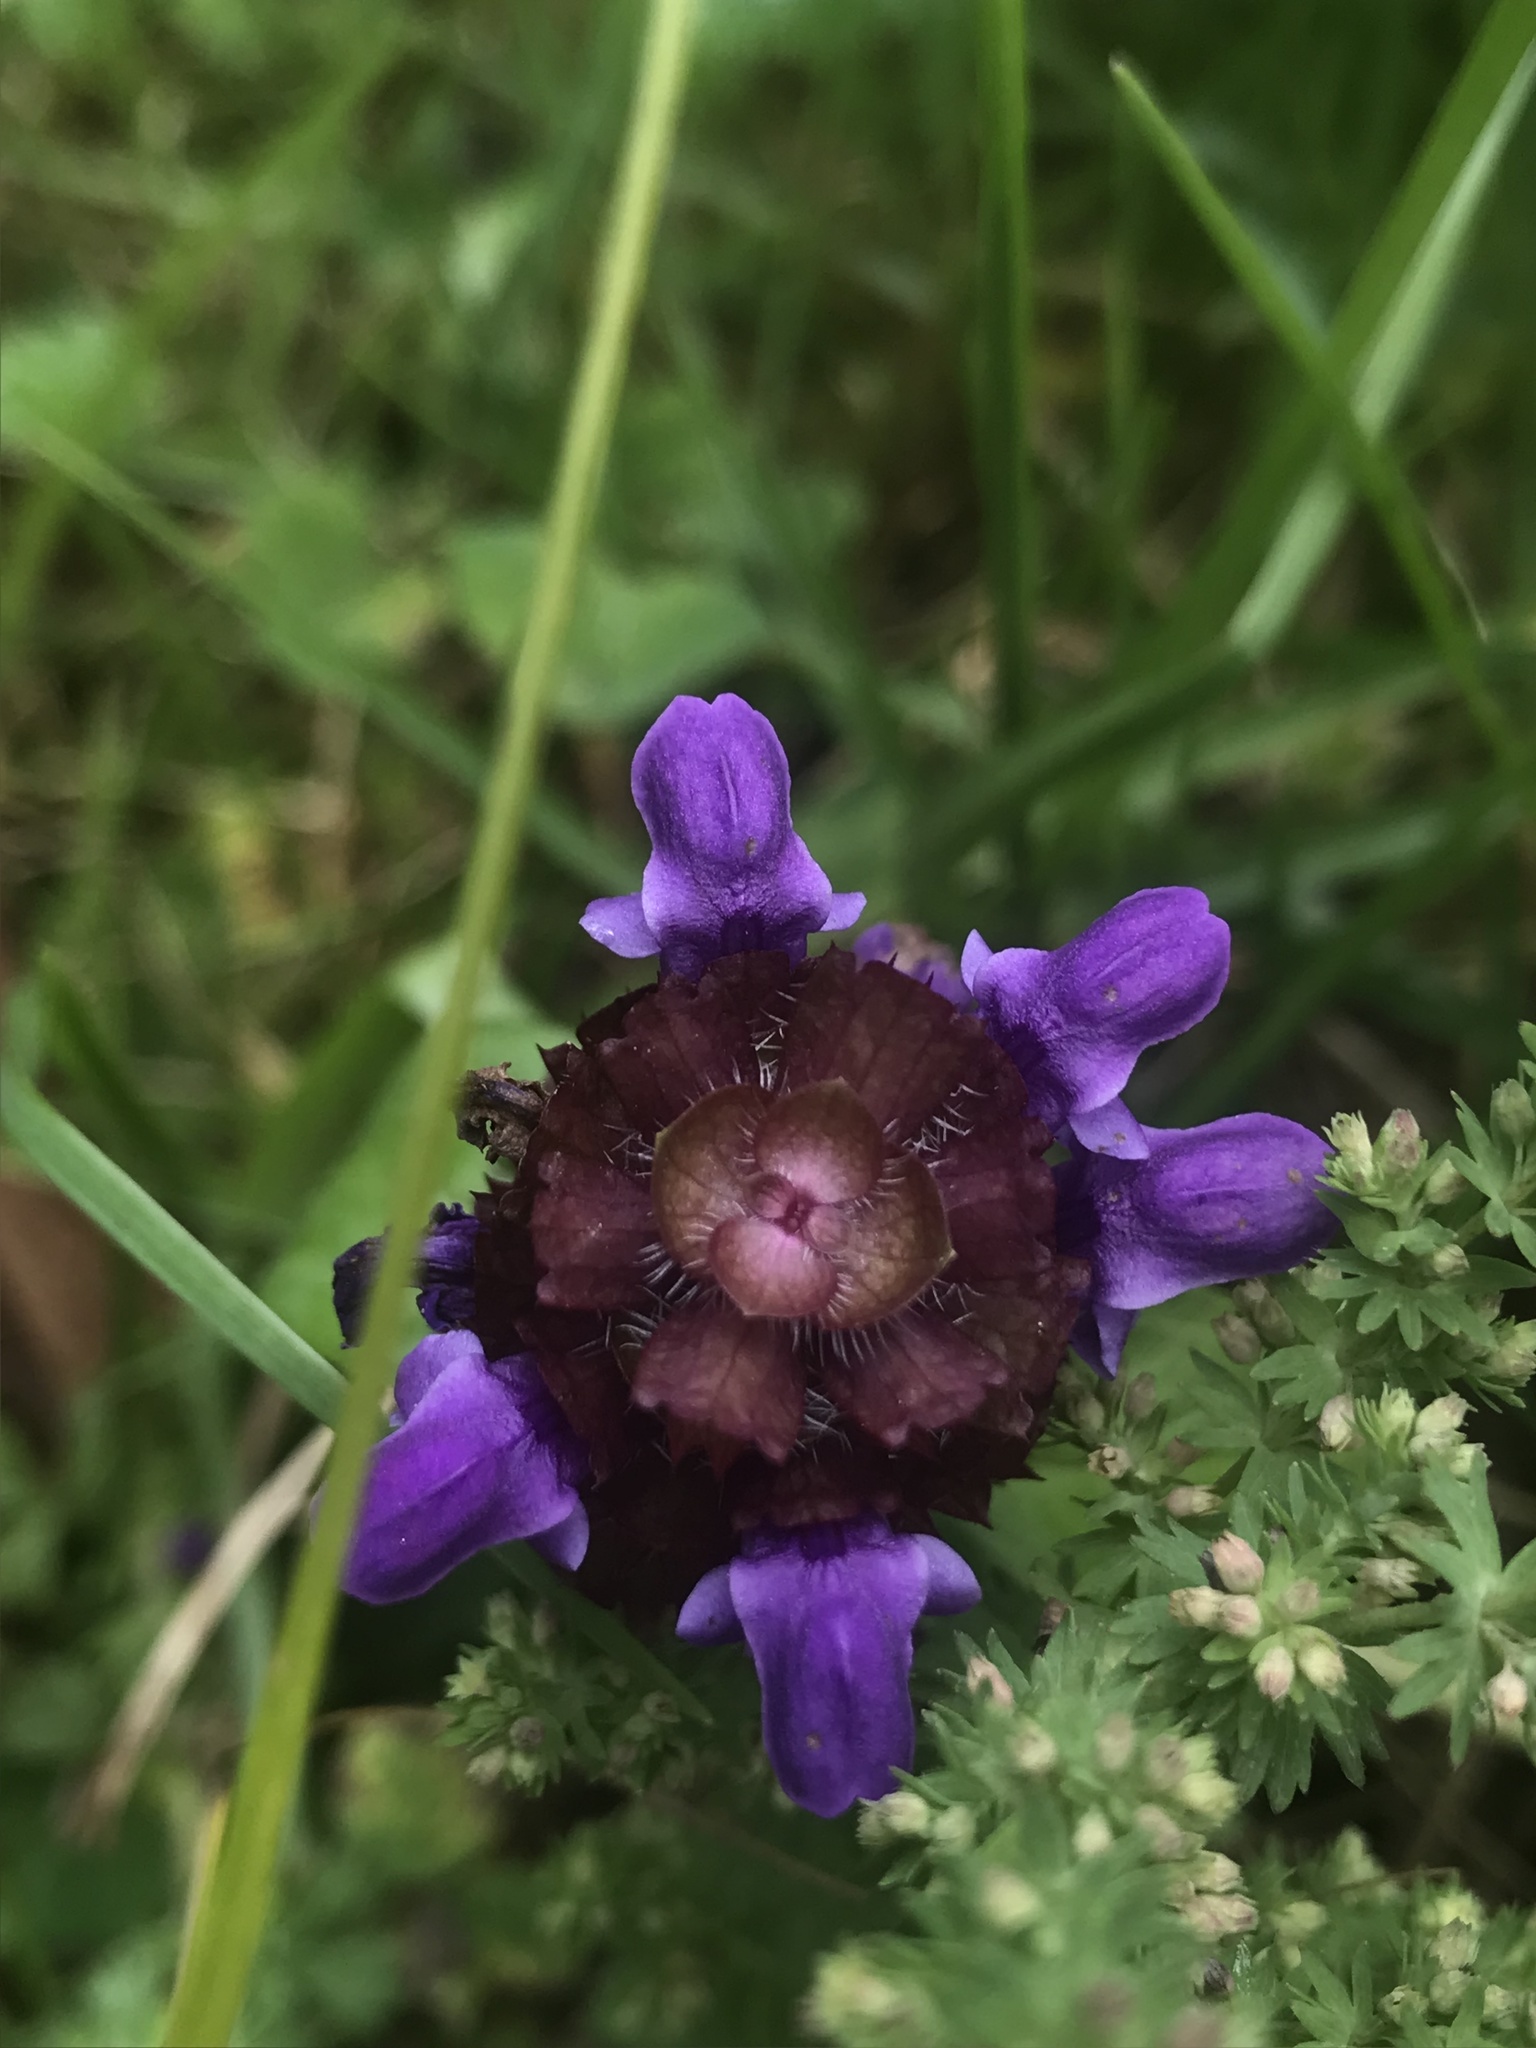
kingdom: Plantae
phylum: Tracheophyta
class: Magnoliopsida
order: Lamiales
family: Lamiaceae
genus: Prunella
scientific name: Prunella vulgaris
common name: Heal-all
